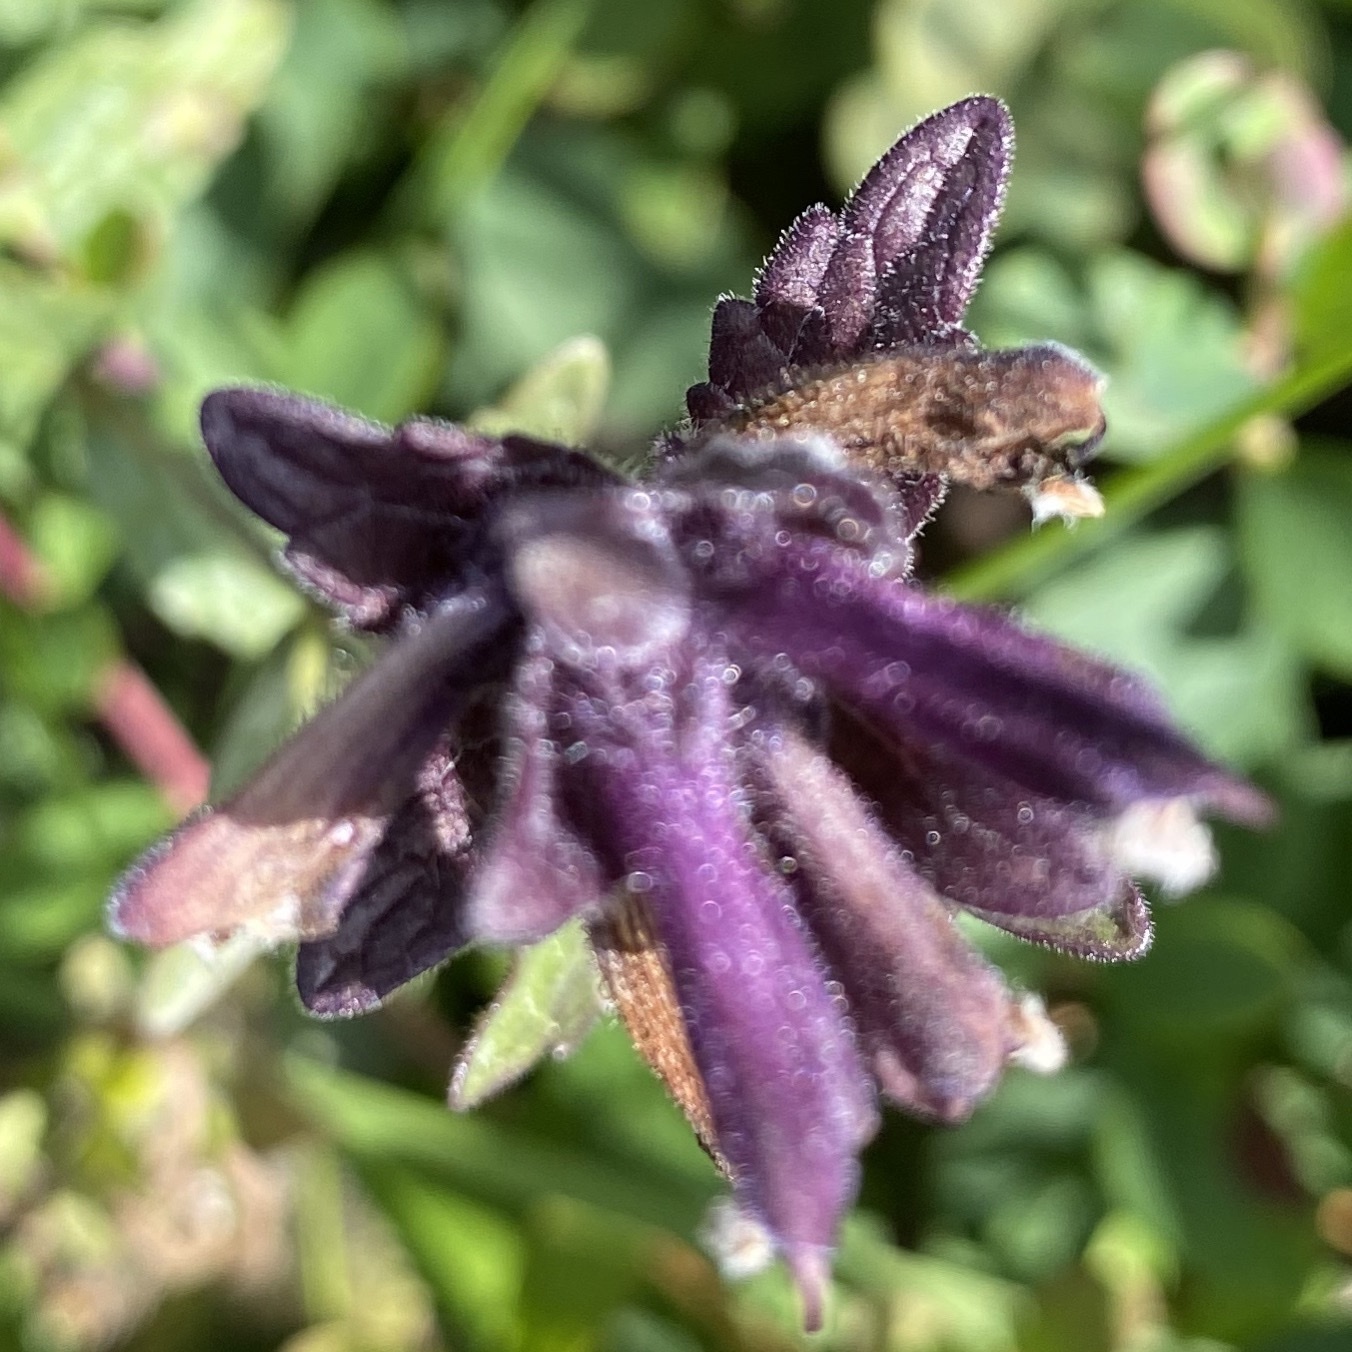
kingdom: Plantae
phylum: Tracheophyta
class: Magnoliopsida
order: Lamiales
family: Orobanchaceae
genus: Bartsia
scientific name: Bartsia alpina
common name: Alpine bartsia
